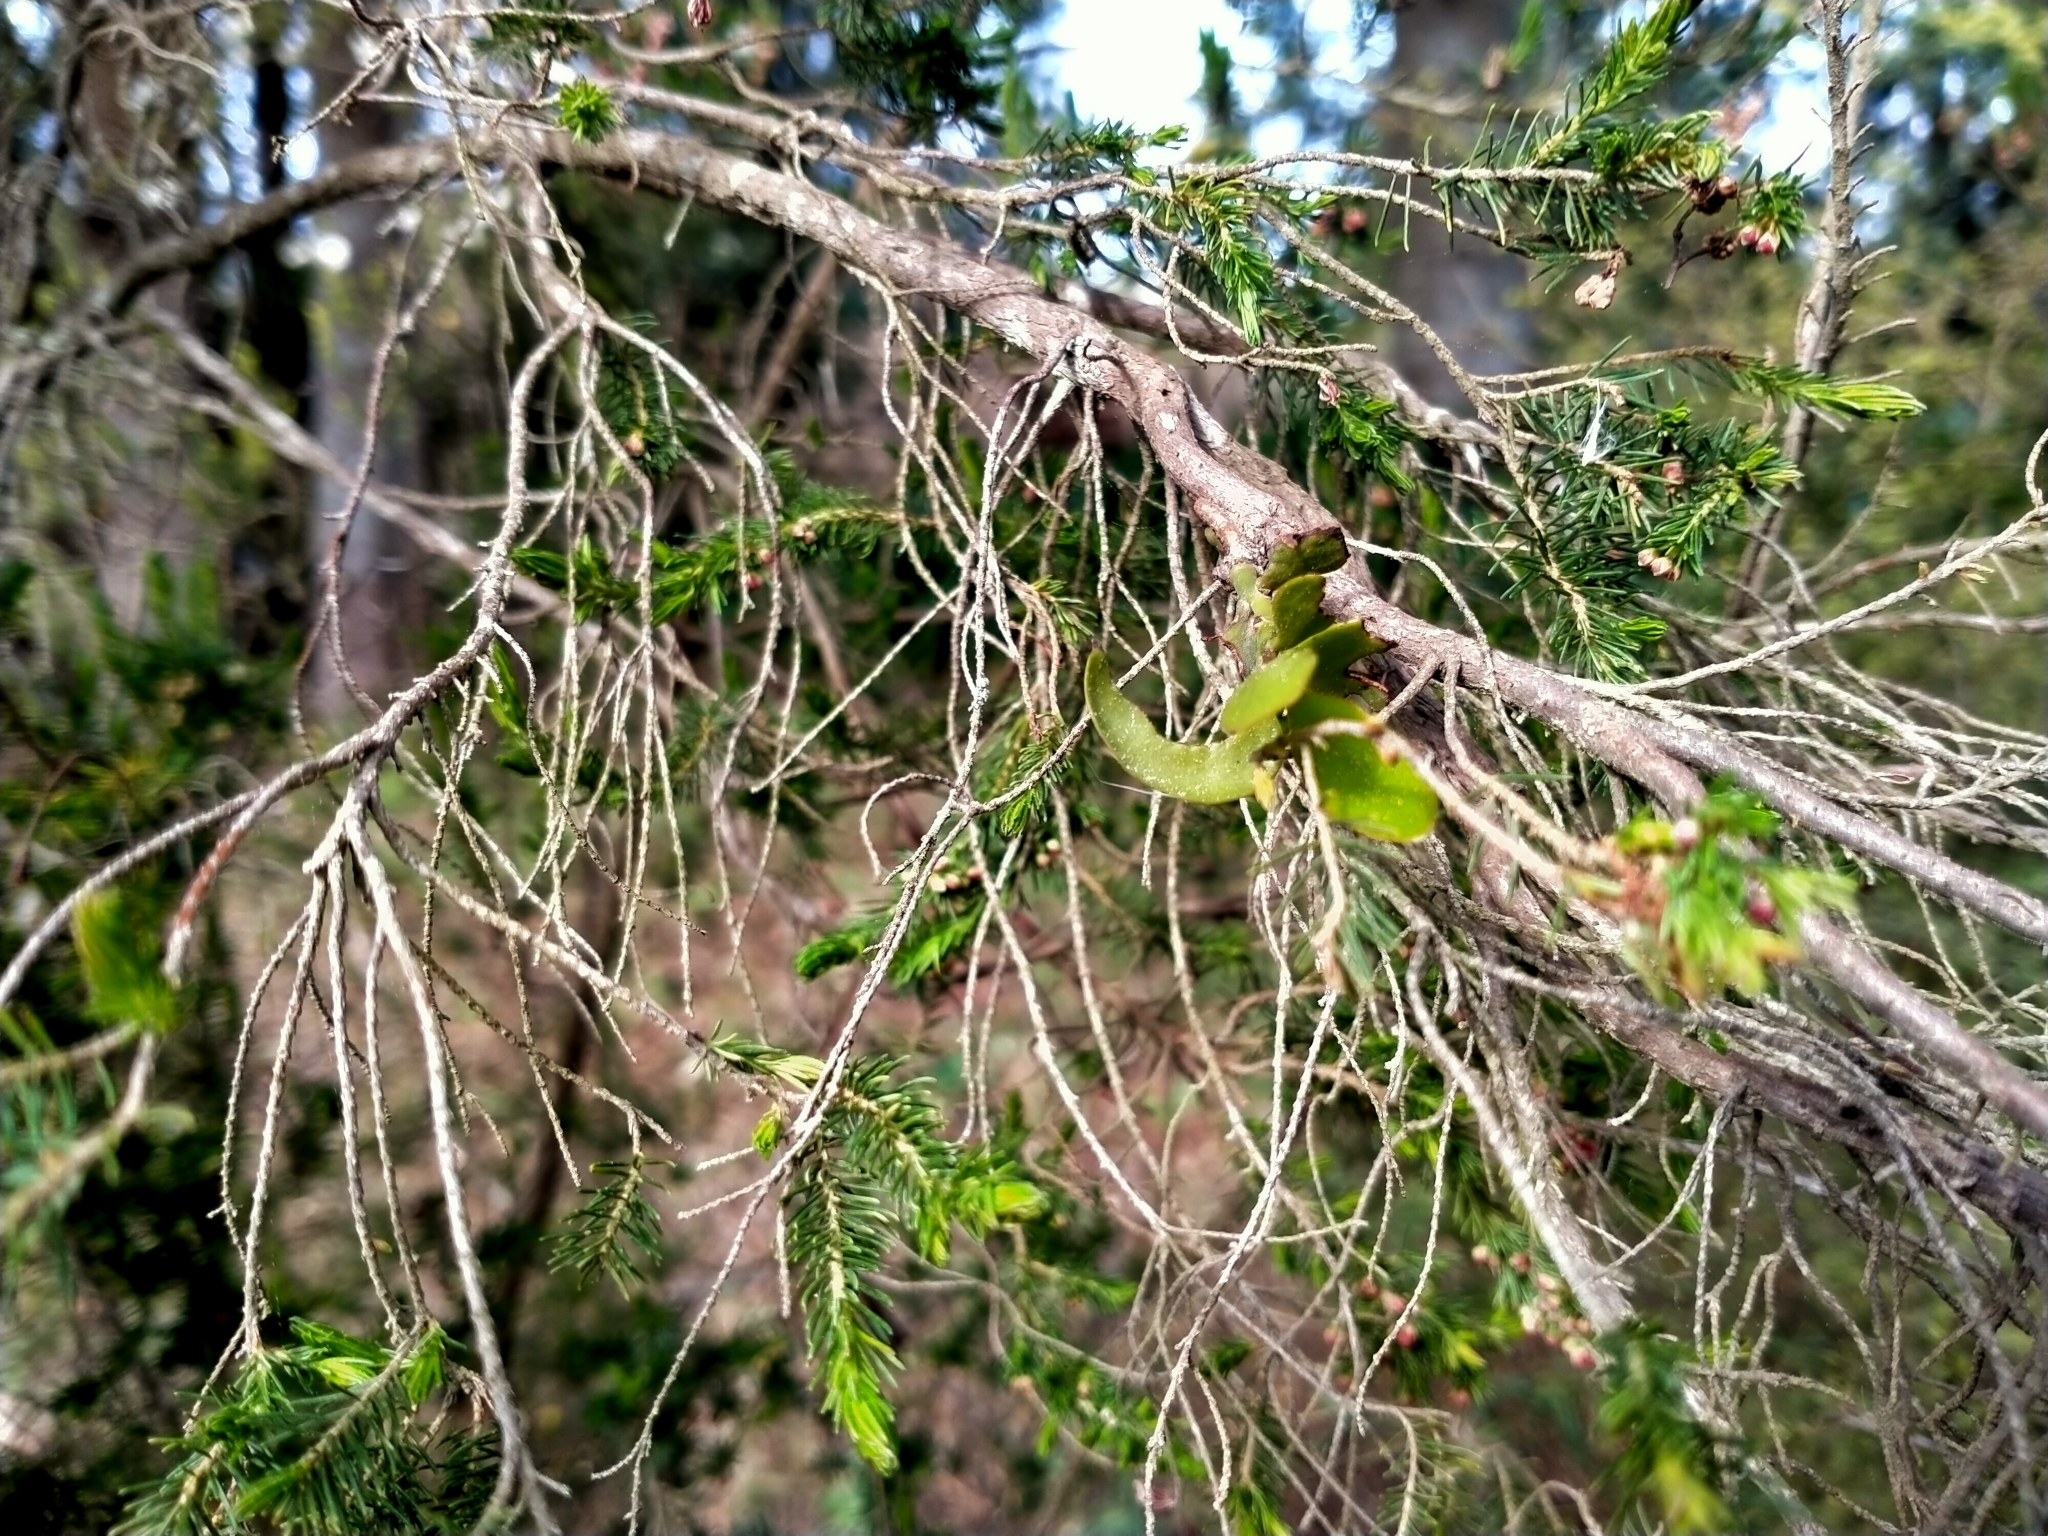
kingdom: Plantae
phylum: Tracheophyta
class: Magnoliopsida
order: Santalales
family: Loranthaceae
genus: Ileostylus
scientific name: Ileostylus micranthus
